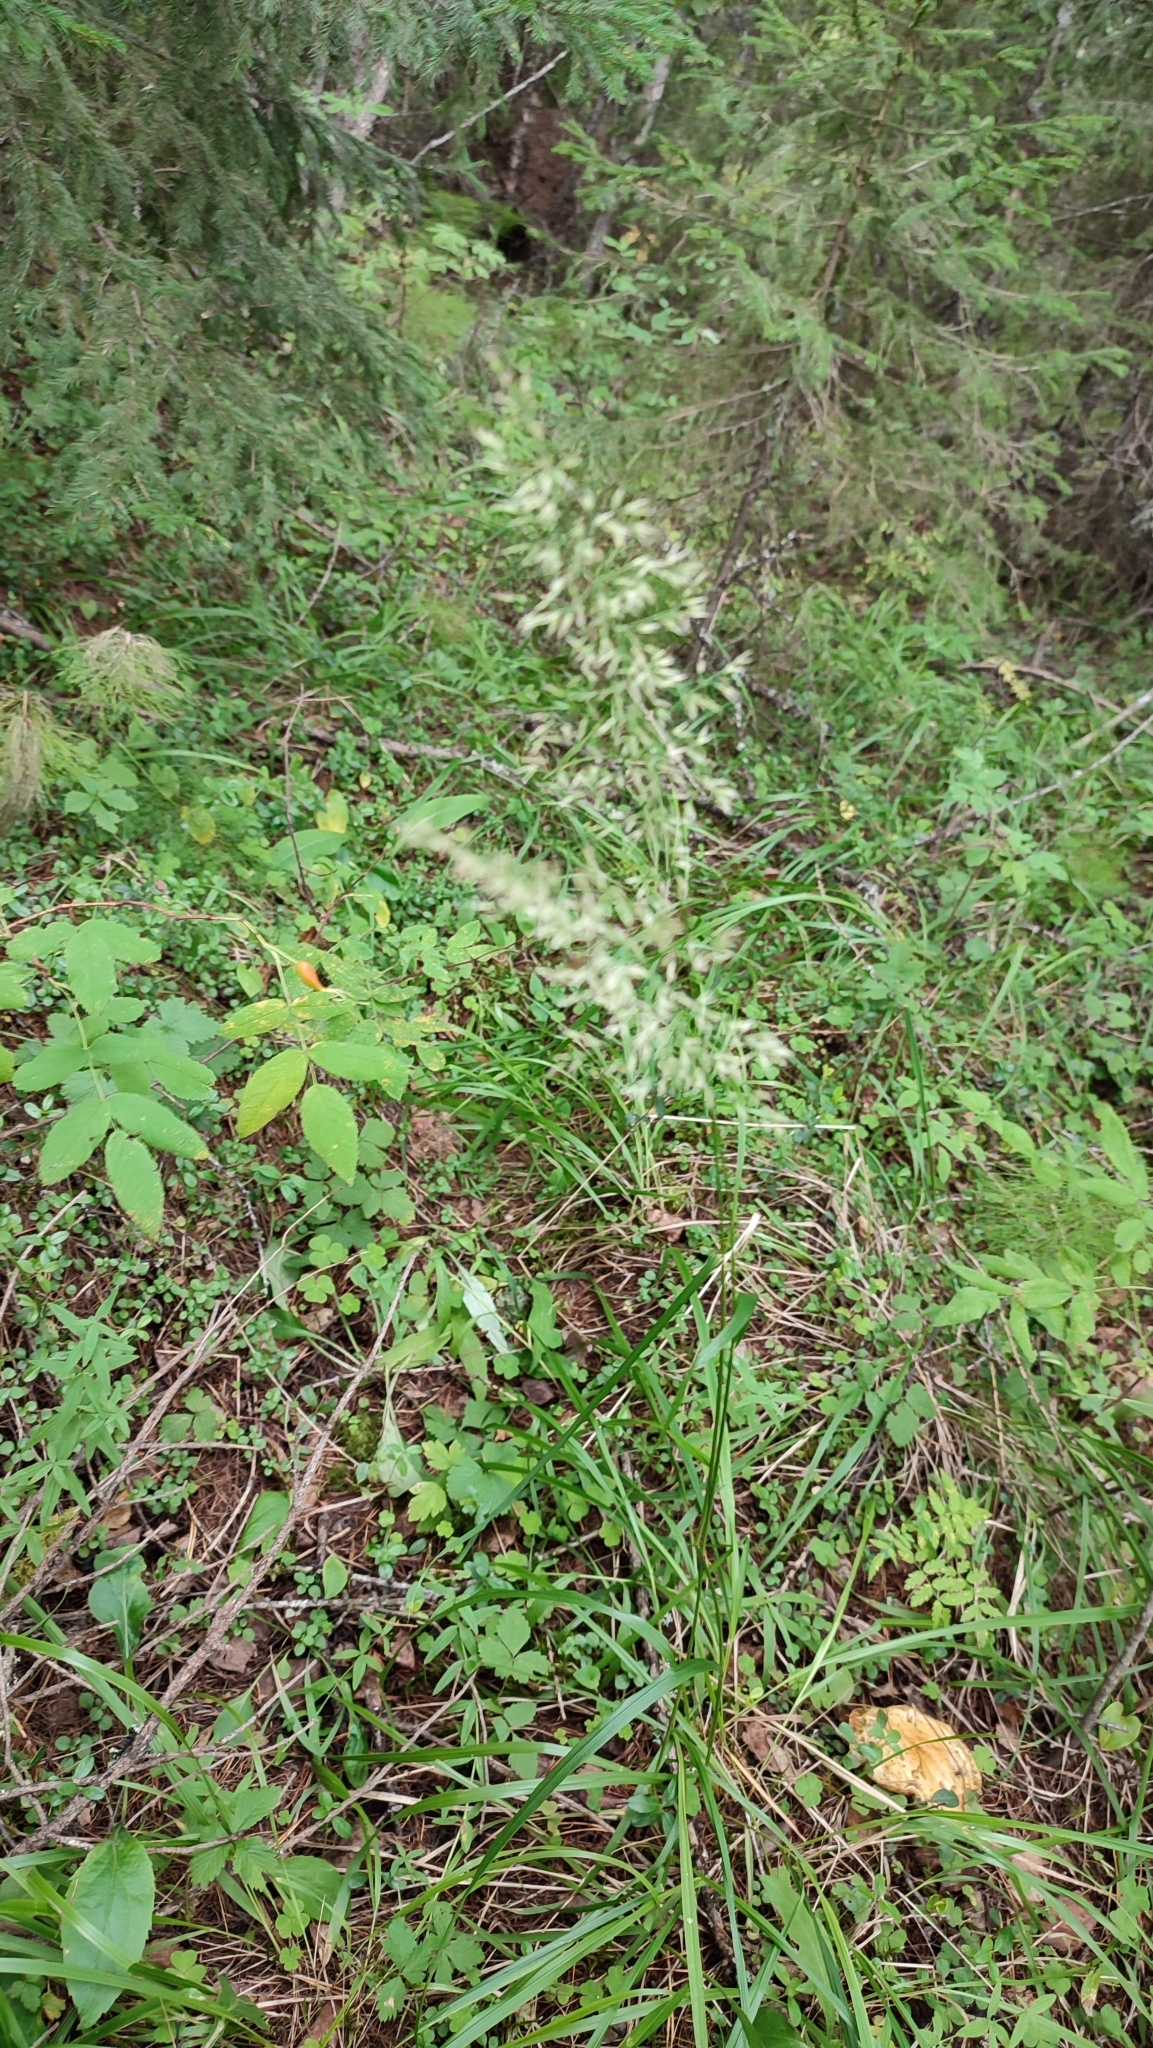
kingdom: Plantae
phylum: Tracheophyta
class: Liliopsida
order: Poales
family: Poaceae
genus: Calamagrostis
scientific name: Calamagrostis arundinacea
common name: Metskastik
